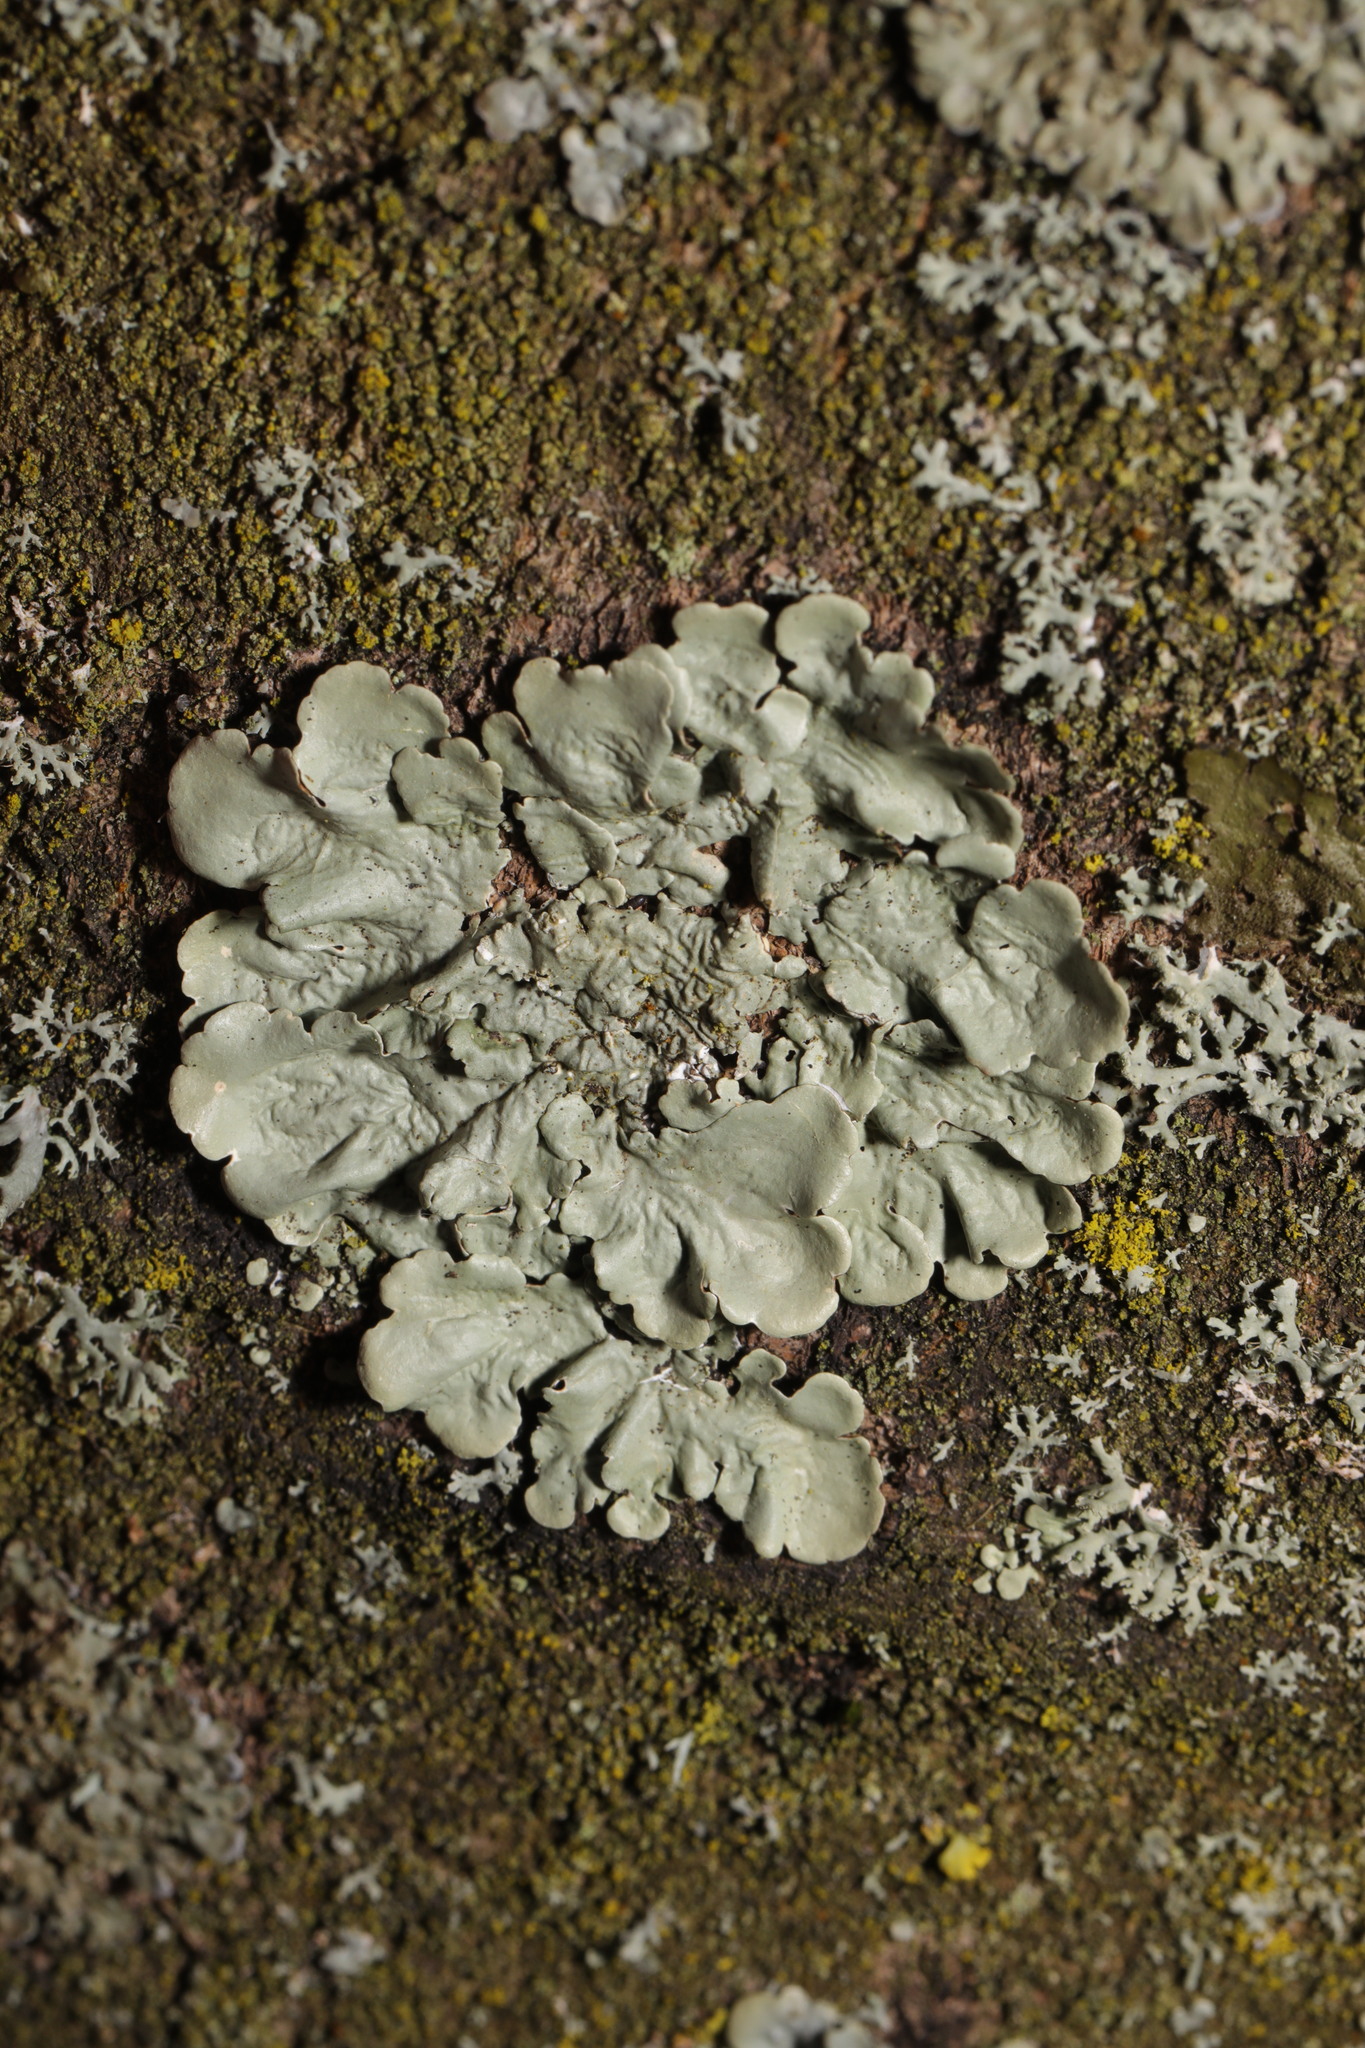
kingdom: Fungi
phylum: Ascomycota
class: Lecanoromycetes
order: Lecanorales
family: Parmeliaceae
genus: Flavoparmelia
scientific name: Flavoparmelia
